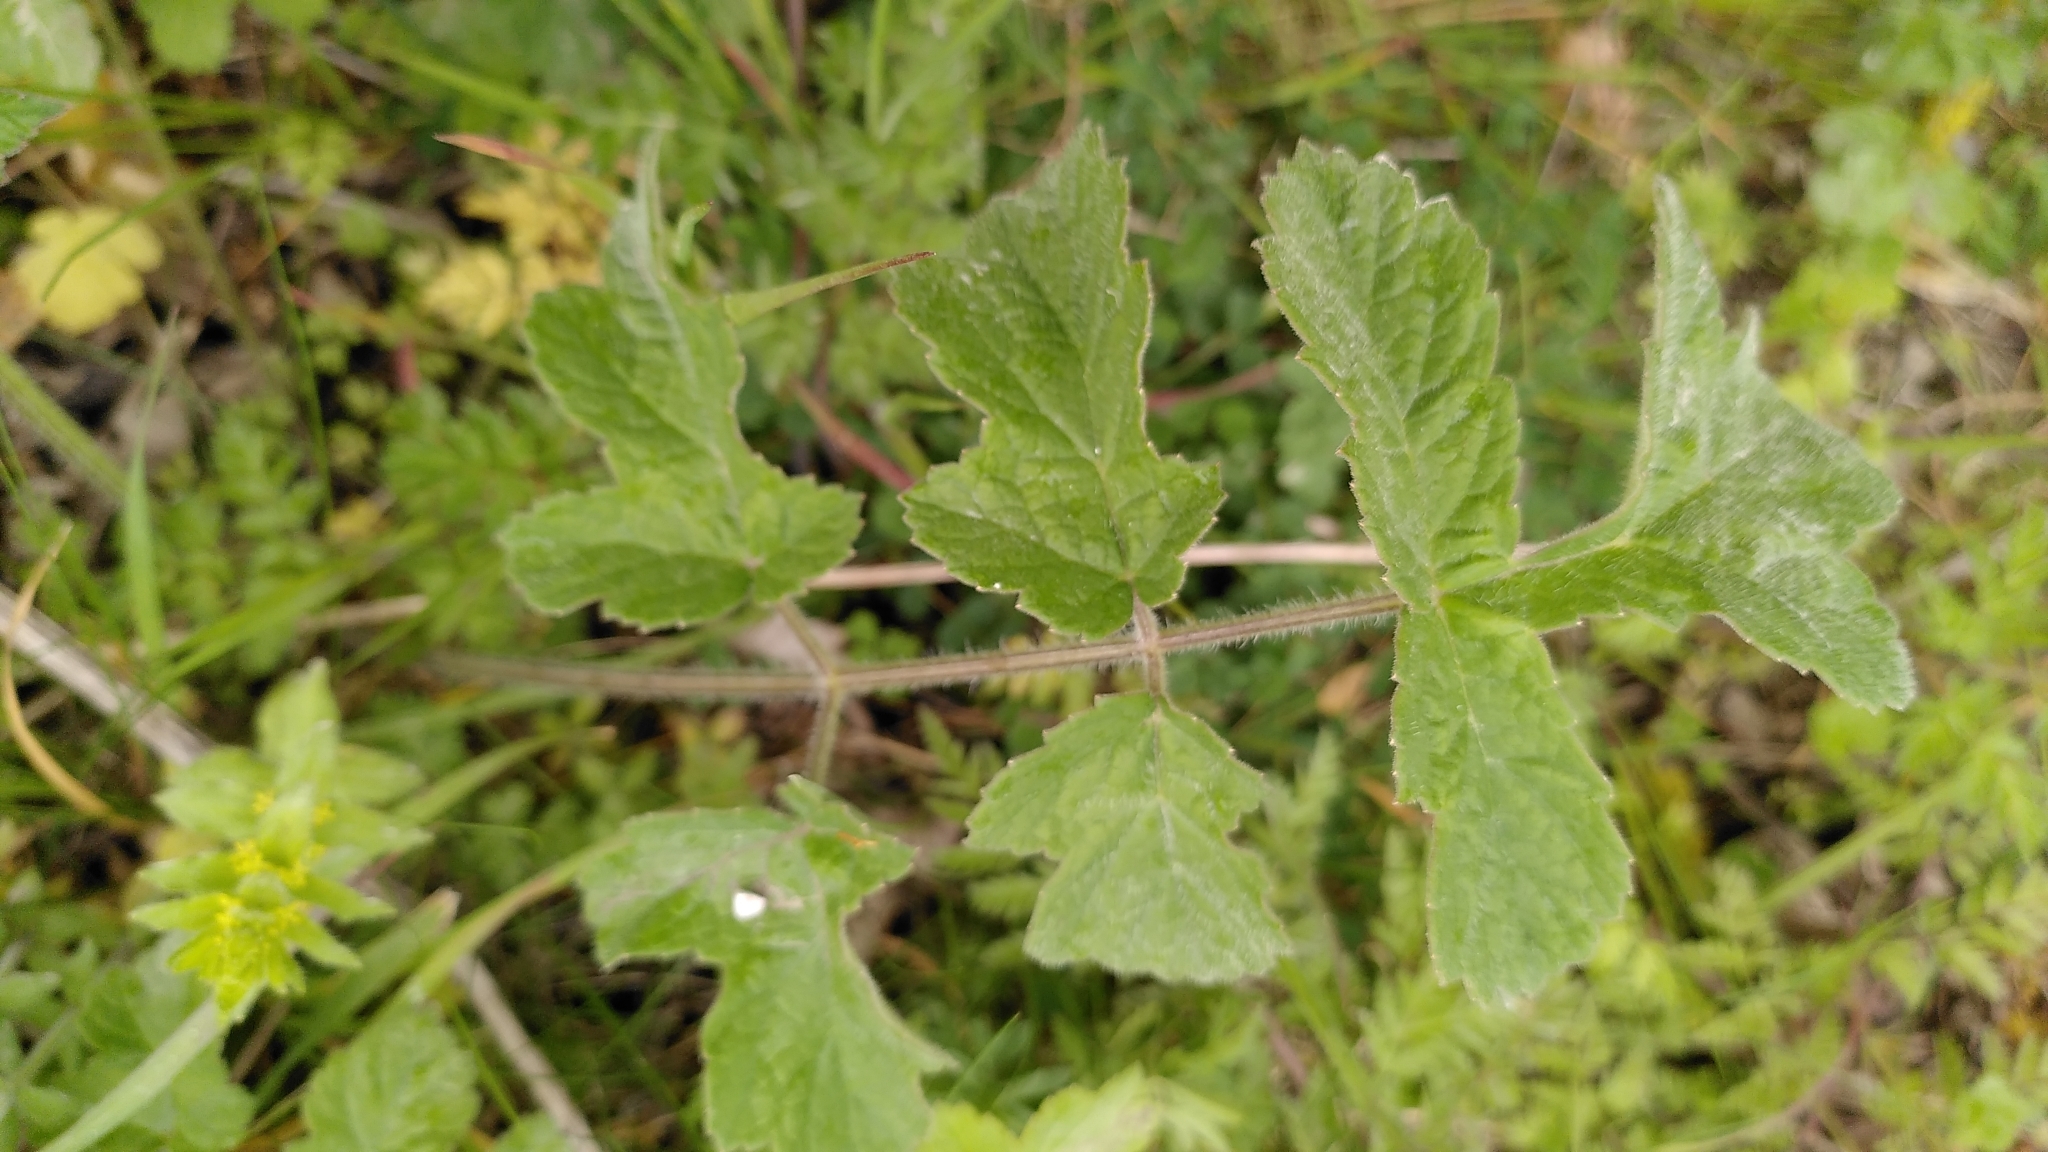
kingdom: Plantae
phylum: Tracheophyta
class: Magnoliopsida
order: Apiales
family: Apiaceae
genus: Heracleum
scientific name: Heracleum sphondylium
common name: Hogweed
